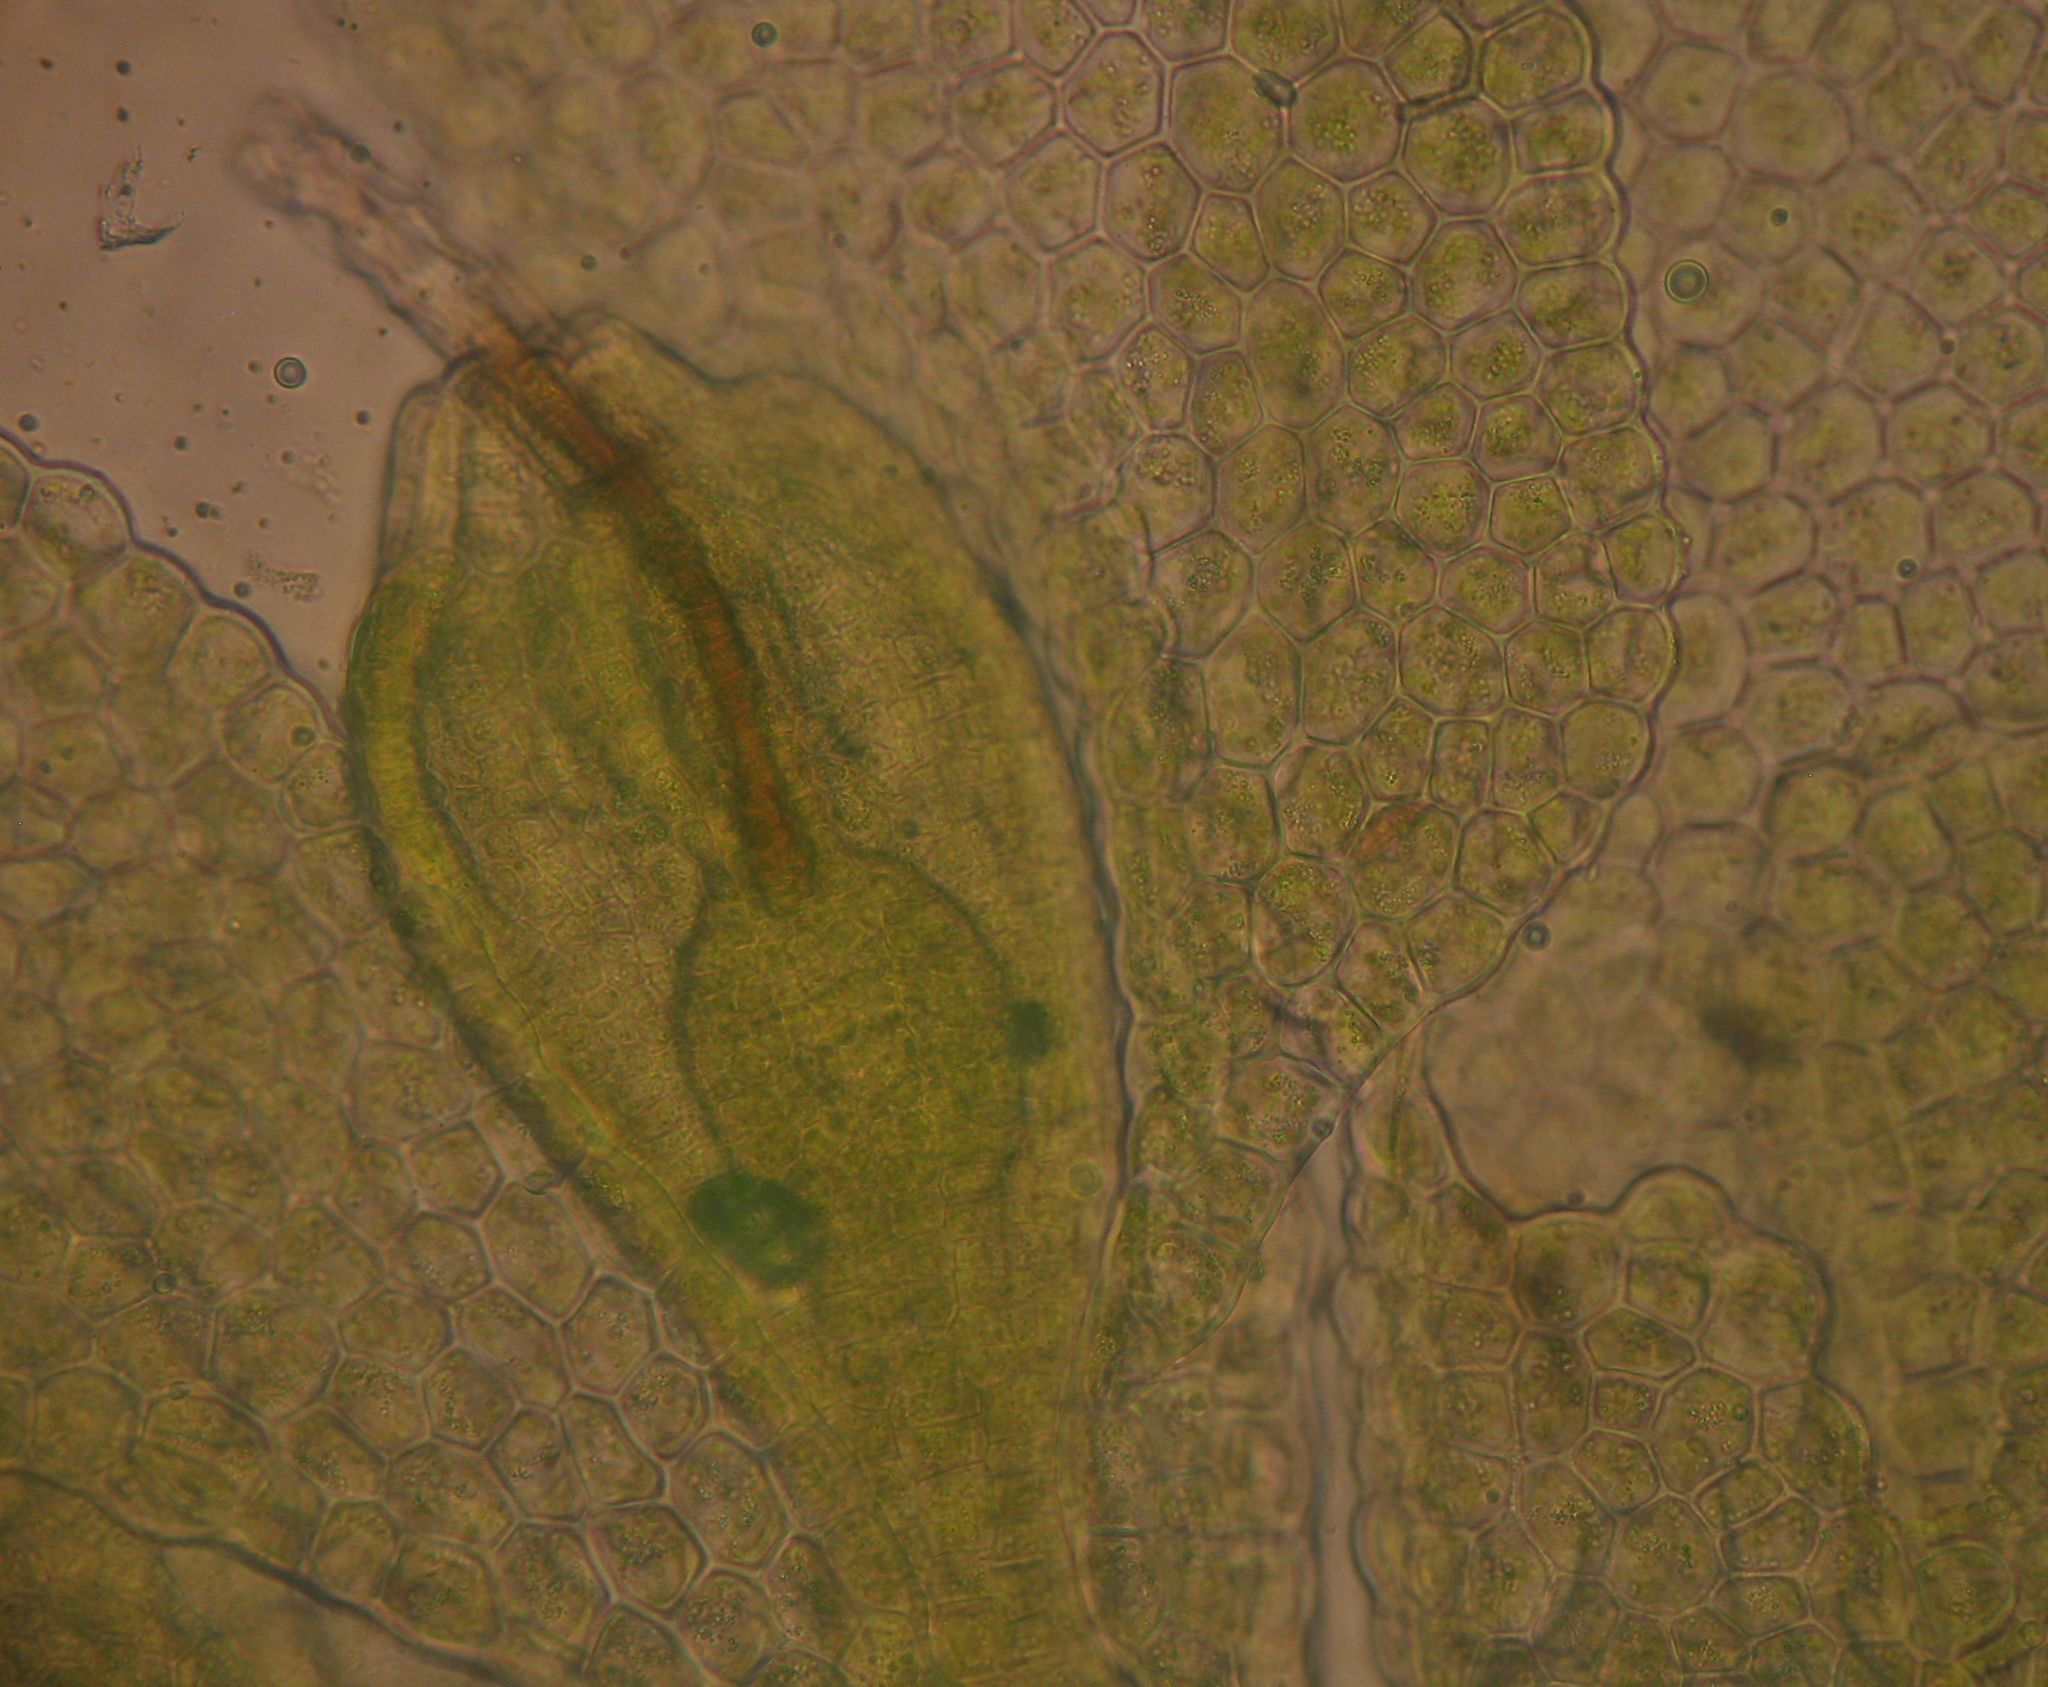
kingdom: Plantae
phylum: Marchantiophyta
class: Jungermanniopsida
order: Porellales
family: Lejeuneaceae
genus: Siphonolejeunea
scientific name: Siphonolejeunea olgae
